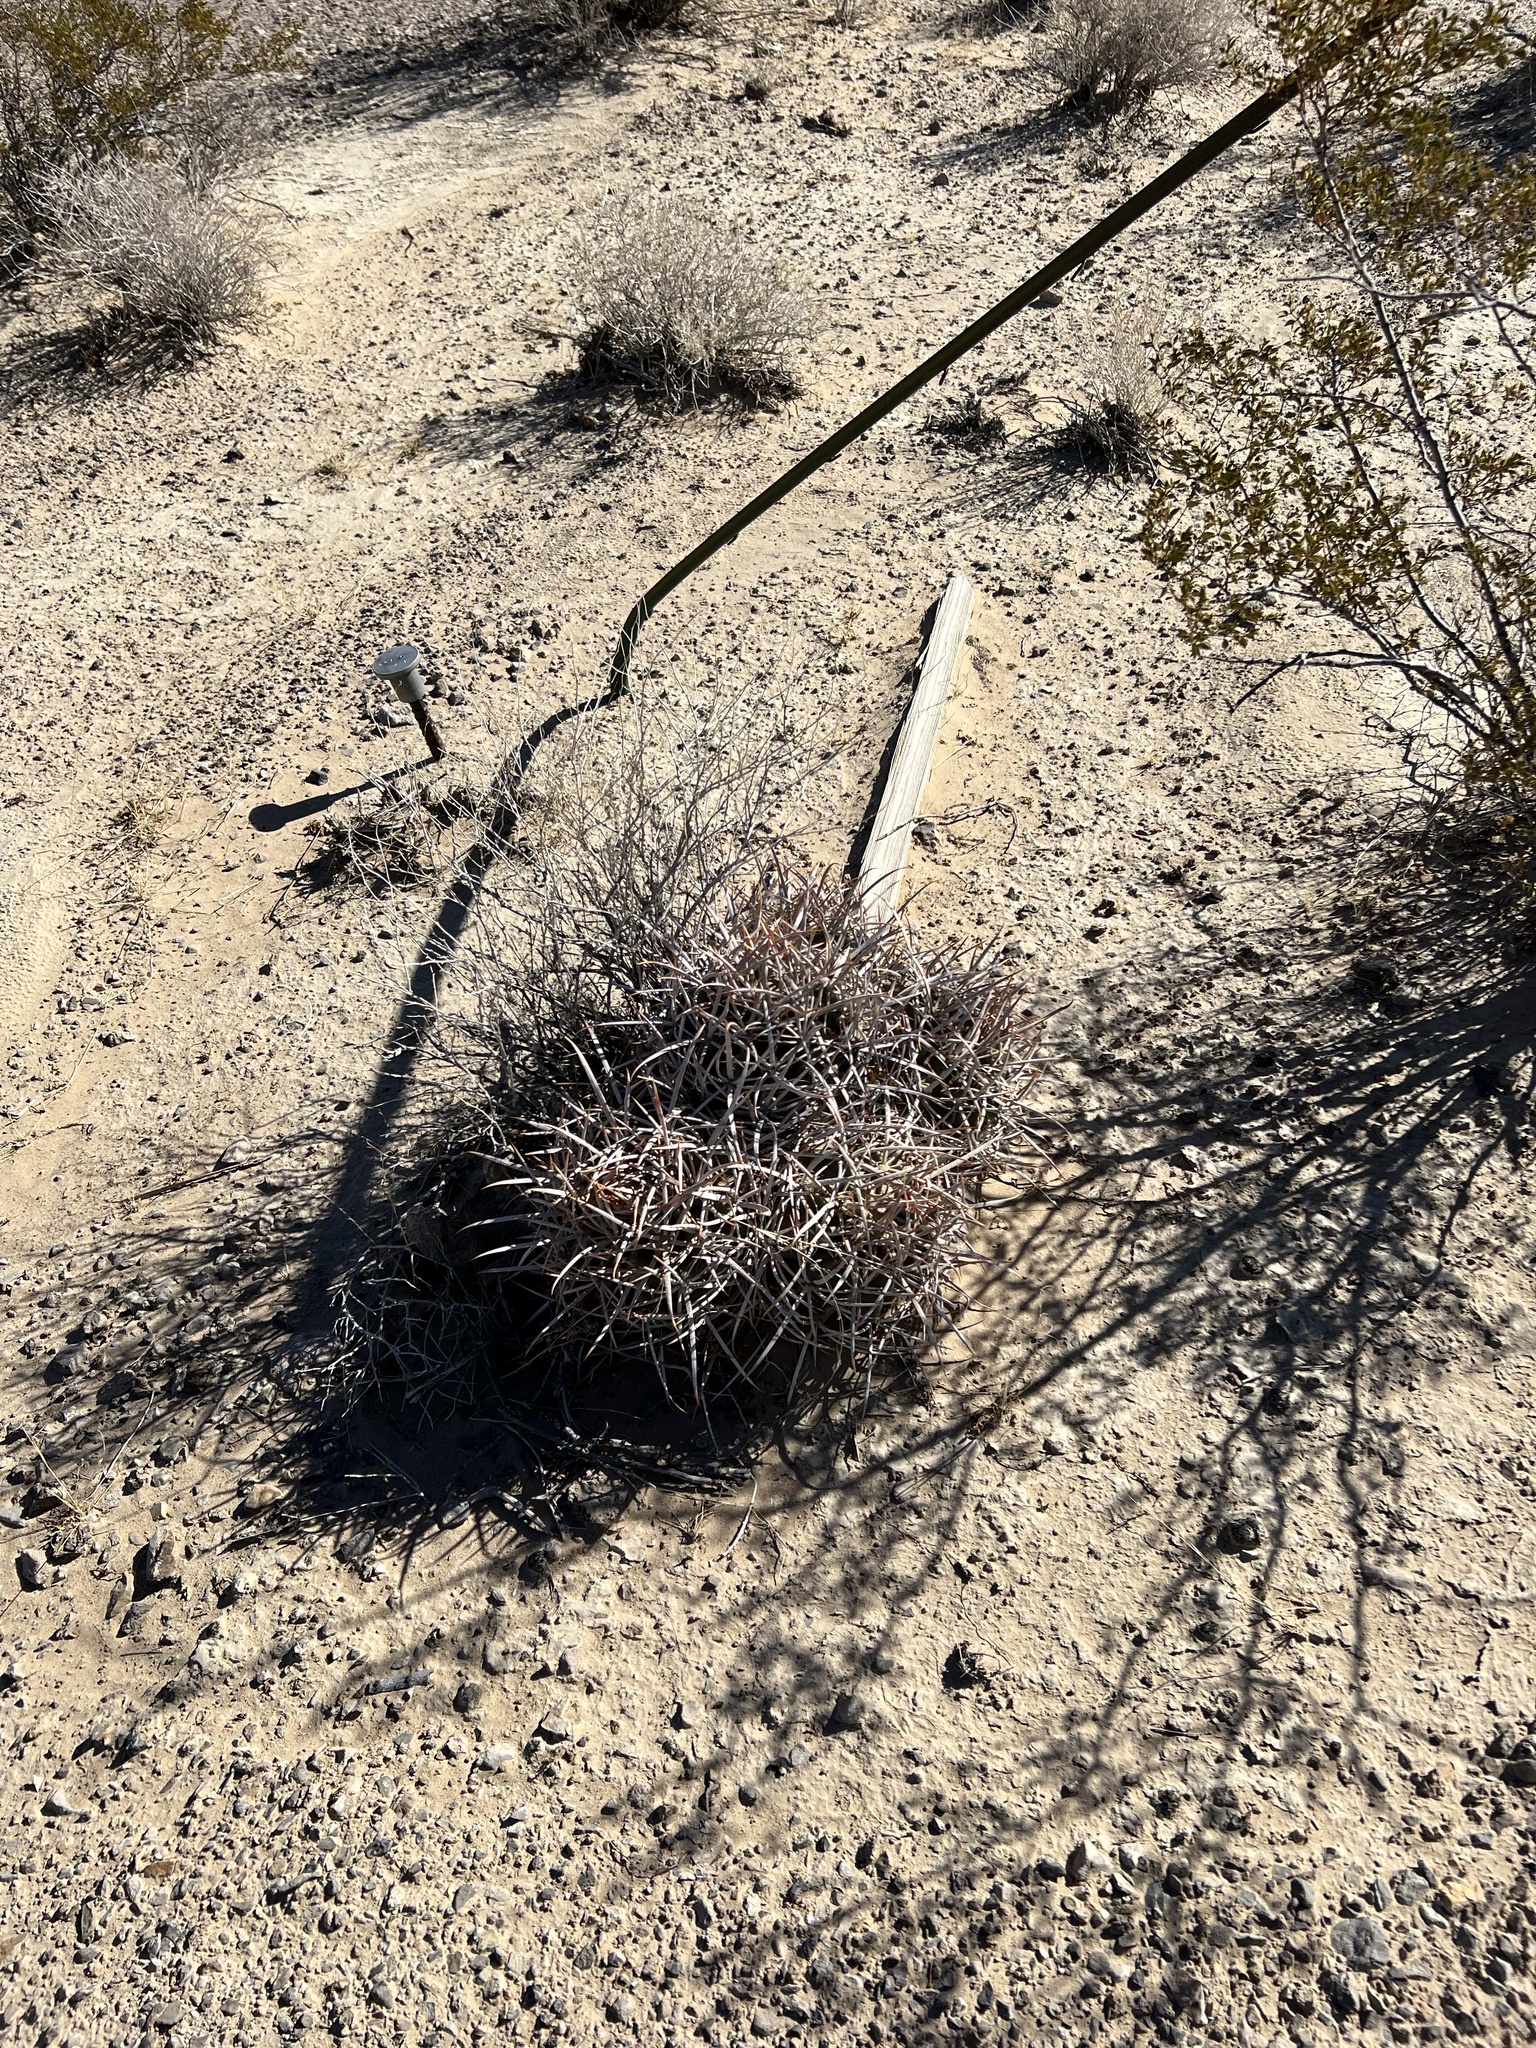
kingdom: Plantae
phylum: Tracheophyta
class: Magnoliopsida
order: Caryophyllales
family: Cactaceae
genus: Echinocactus
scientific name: Echinocactus polycephalus
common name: Cottontop cactus
